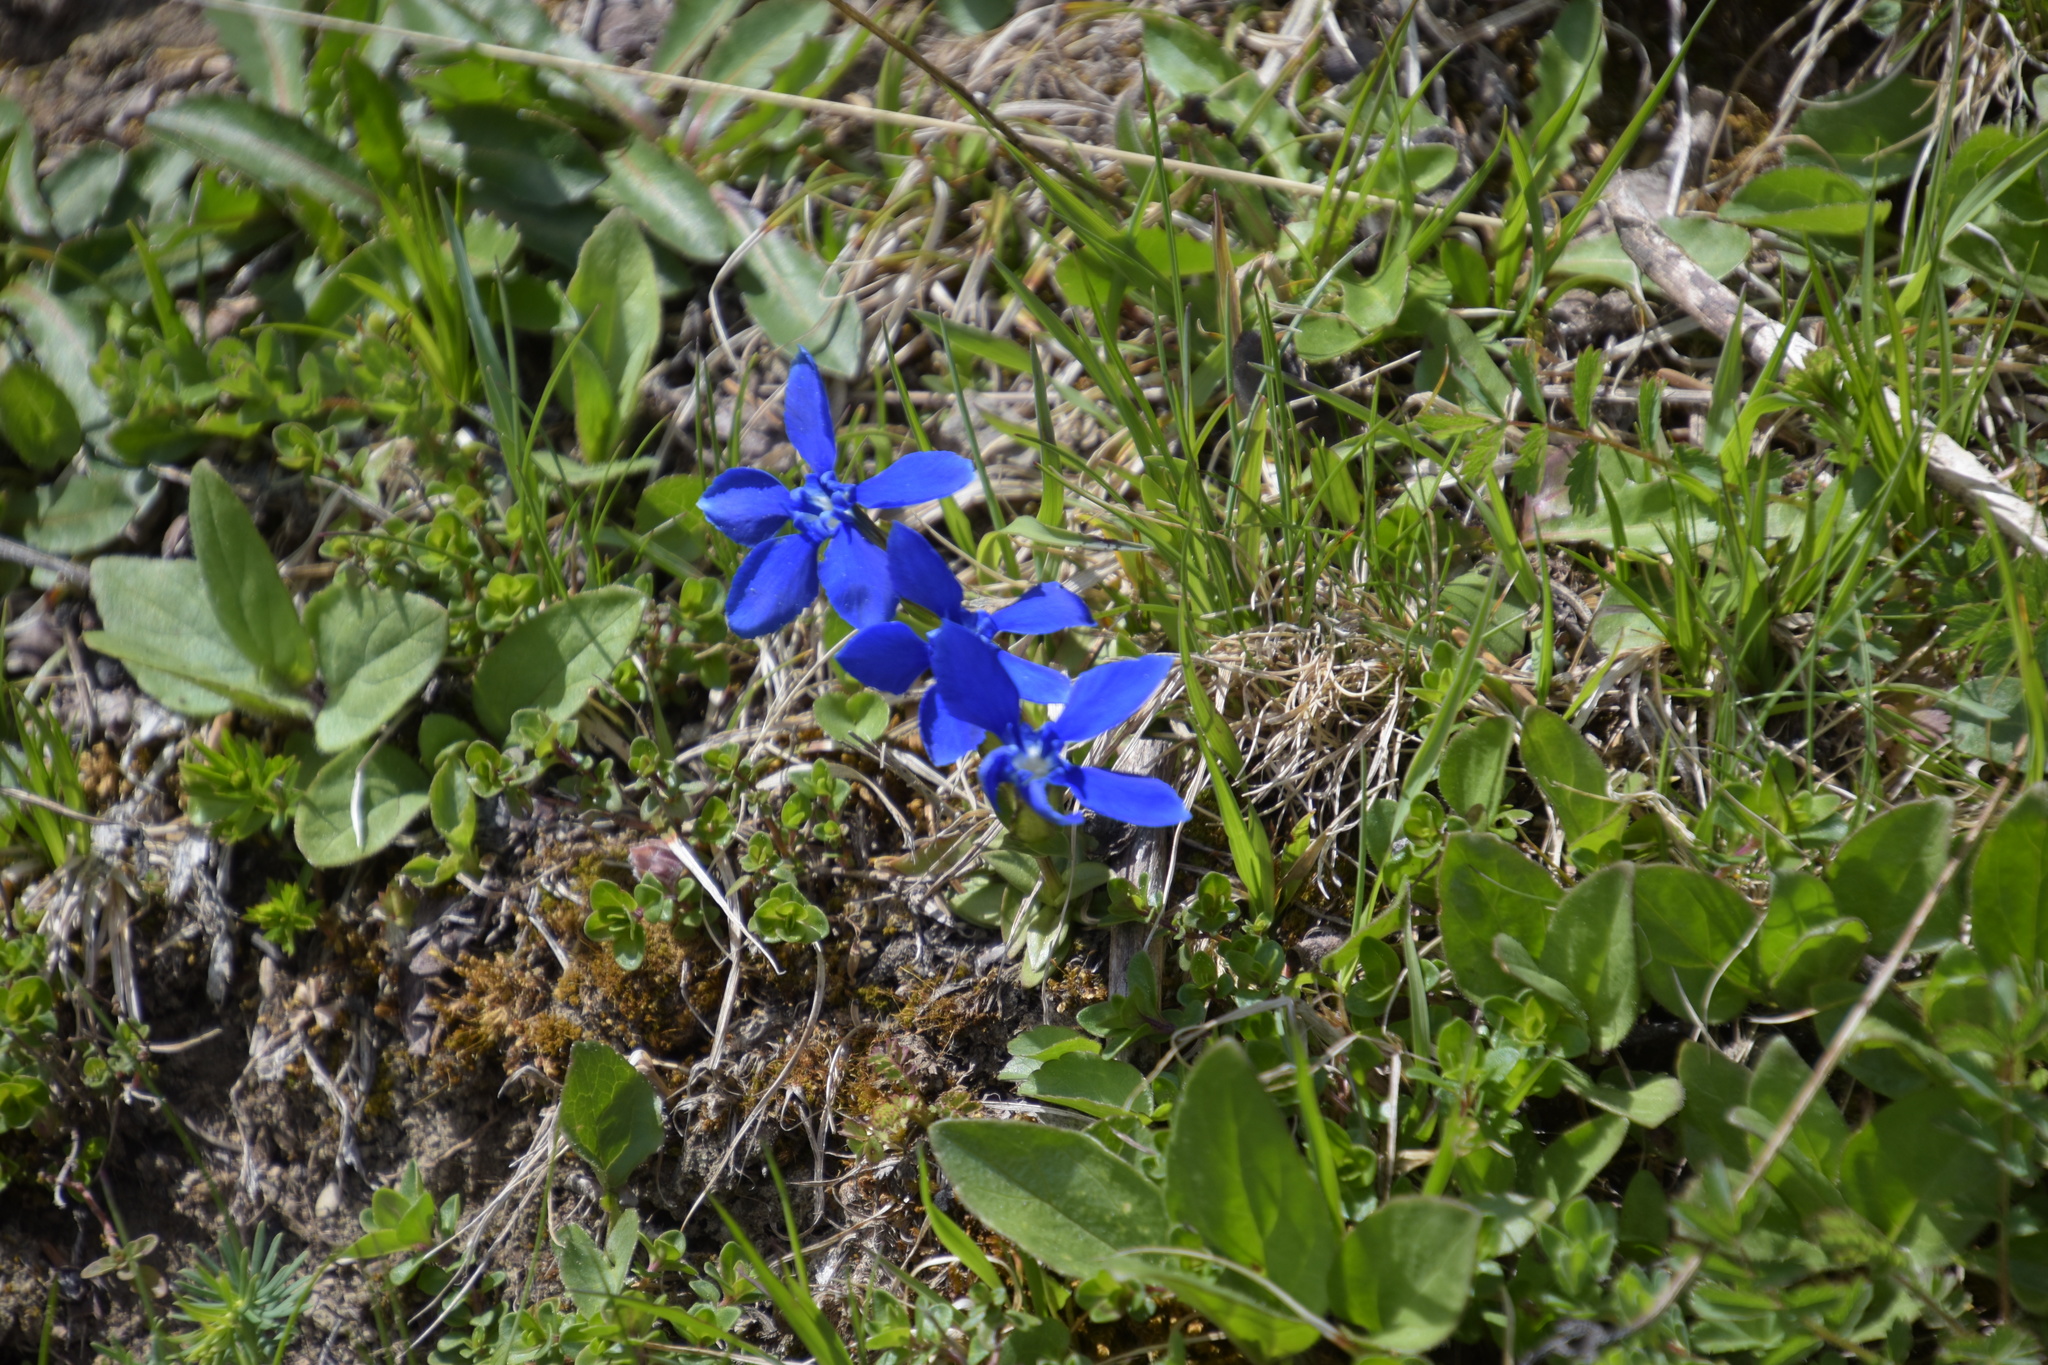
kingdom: Plantae
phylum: Tracheophyta
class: Magnoliopsida
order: Gentianales
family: Gentianaceae
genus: Gentiana
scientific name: Gentiana verna
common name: Spring gentian
